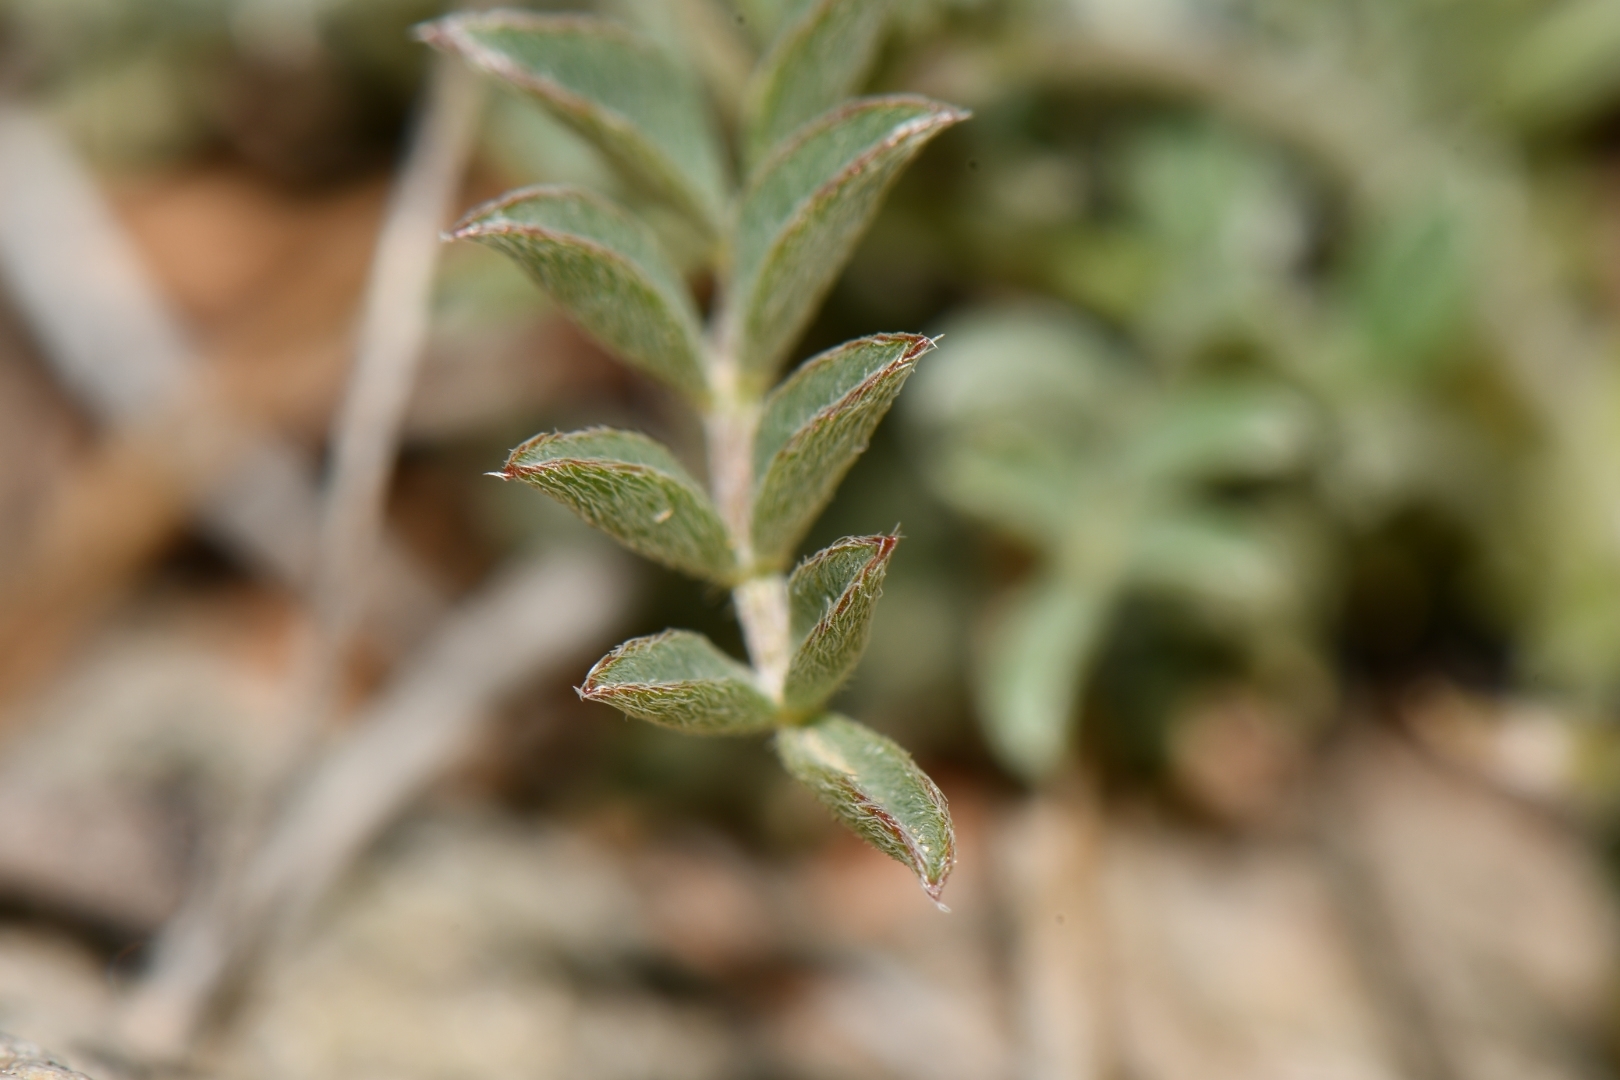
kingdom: Plantae
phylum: Tracheophyta
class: Magnoliopsida
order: Fabales
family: Fabaceae
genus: Astragalus
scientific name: Astragalus zionis
